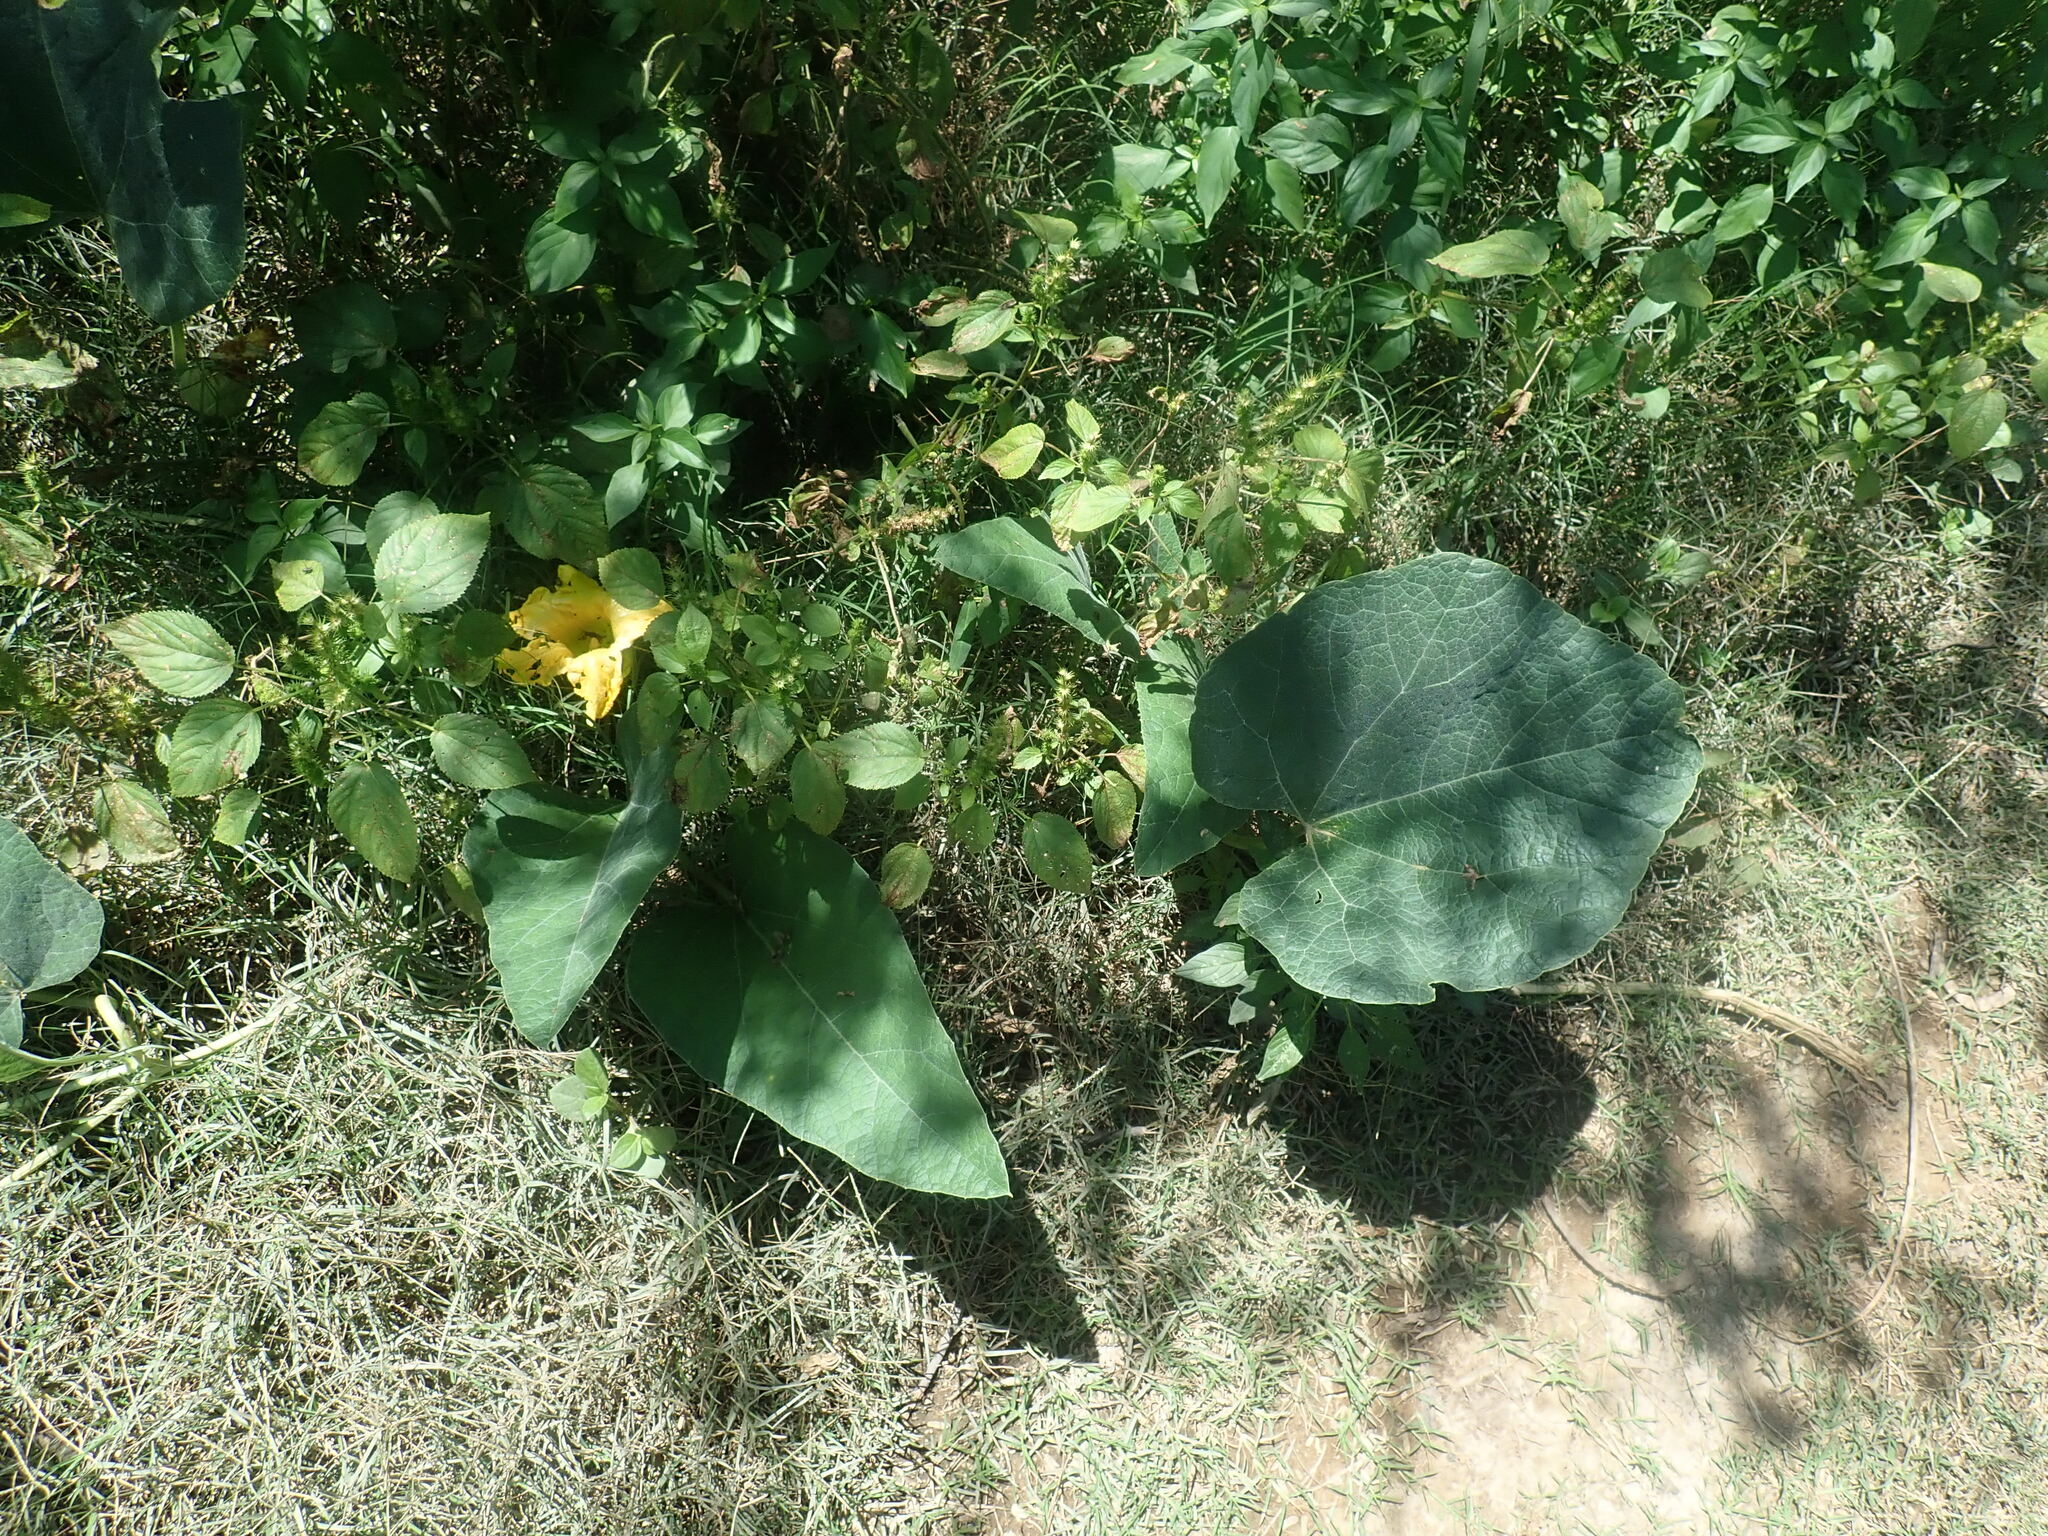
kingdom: Plantae
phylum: Tracheophyta
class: Magnoliopsida
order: Cucurbitales
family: Cucurbitaceae
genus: Cucurbita
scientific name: Cucurbita foetidissima
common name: Buffalo gourd
